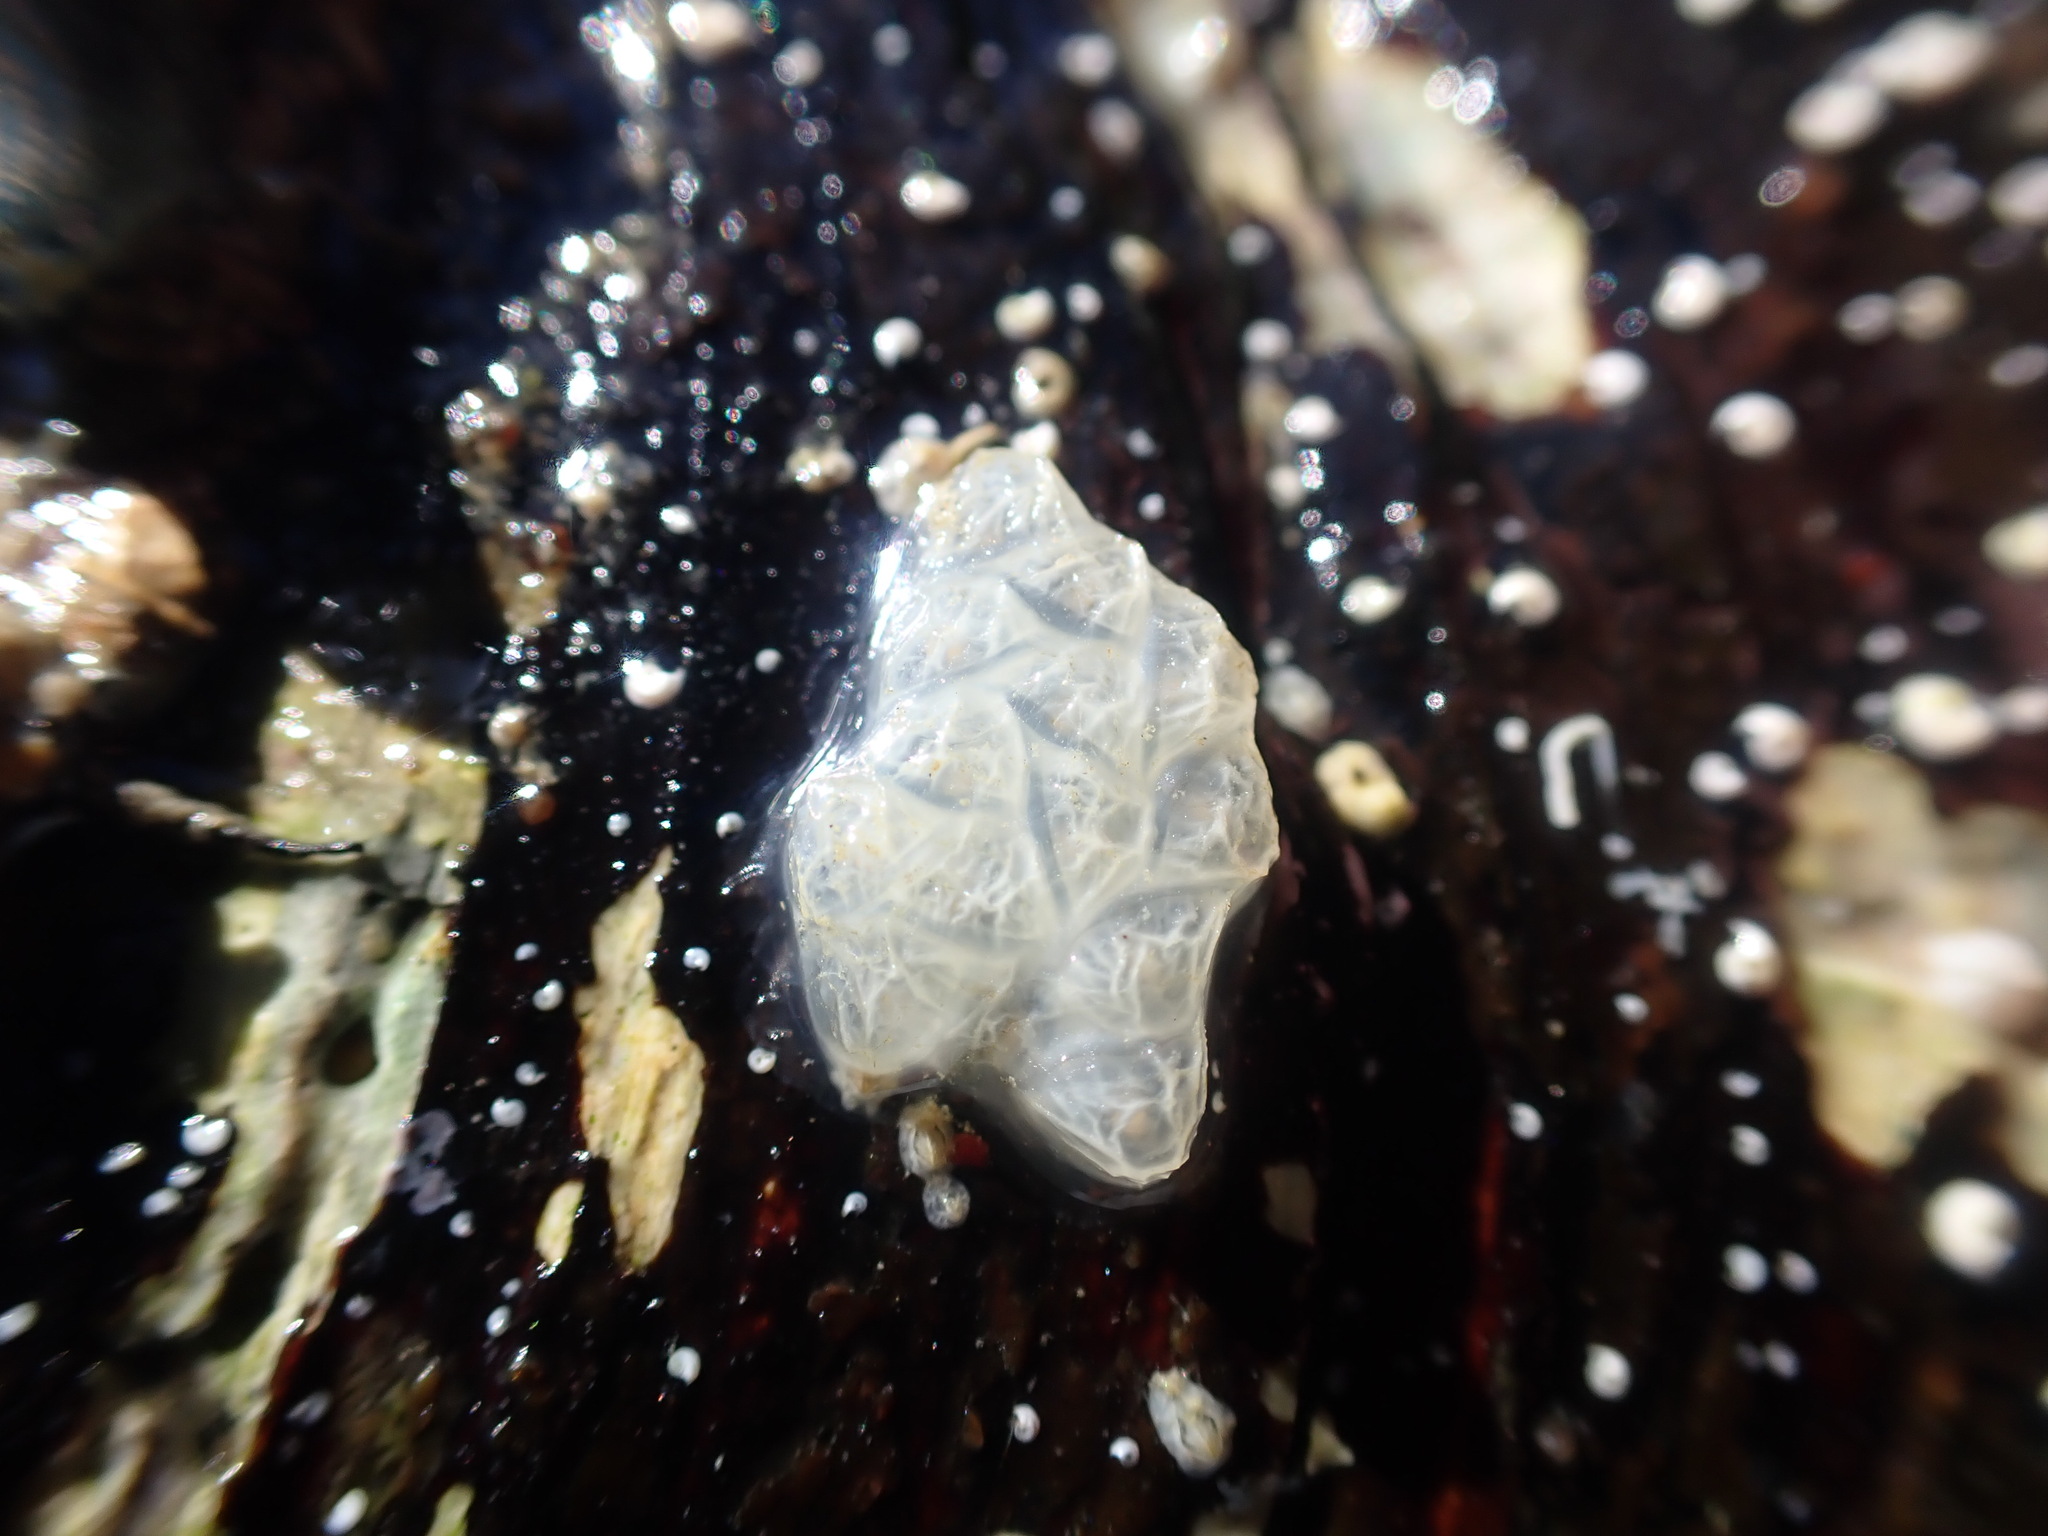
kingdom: Animalia
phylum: Mollusca
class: Gastropoda
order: Neogastropoda
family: Cominellidae
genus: Cominella
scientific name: Cominella virgata
